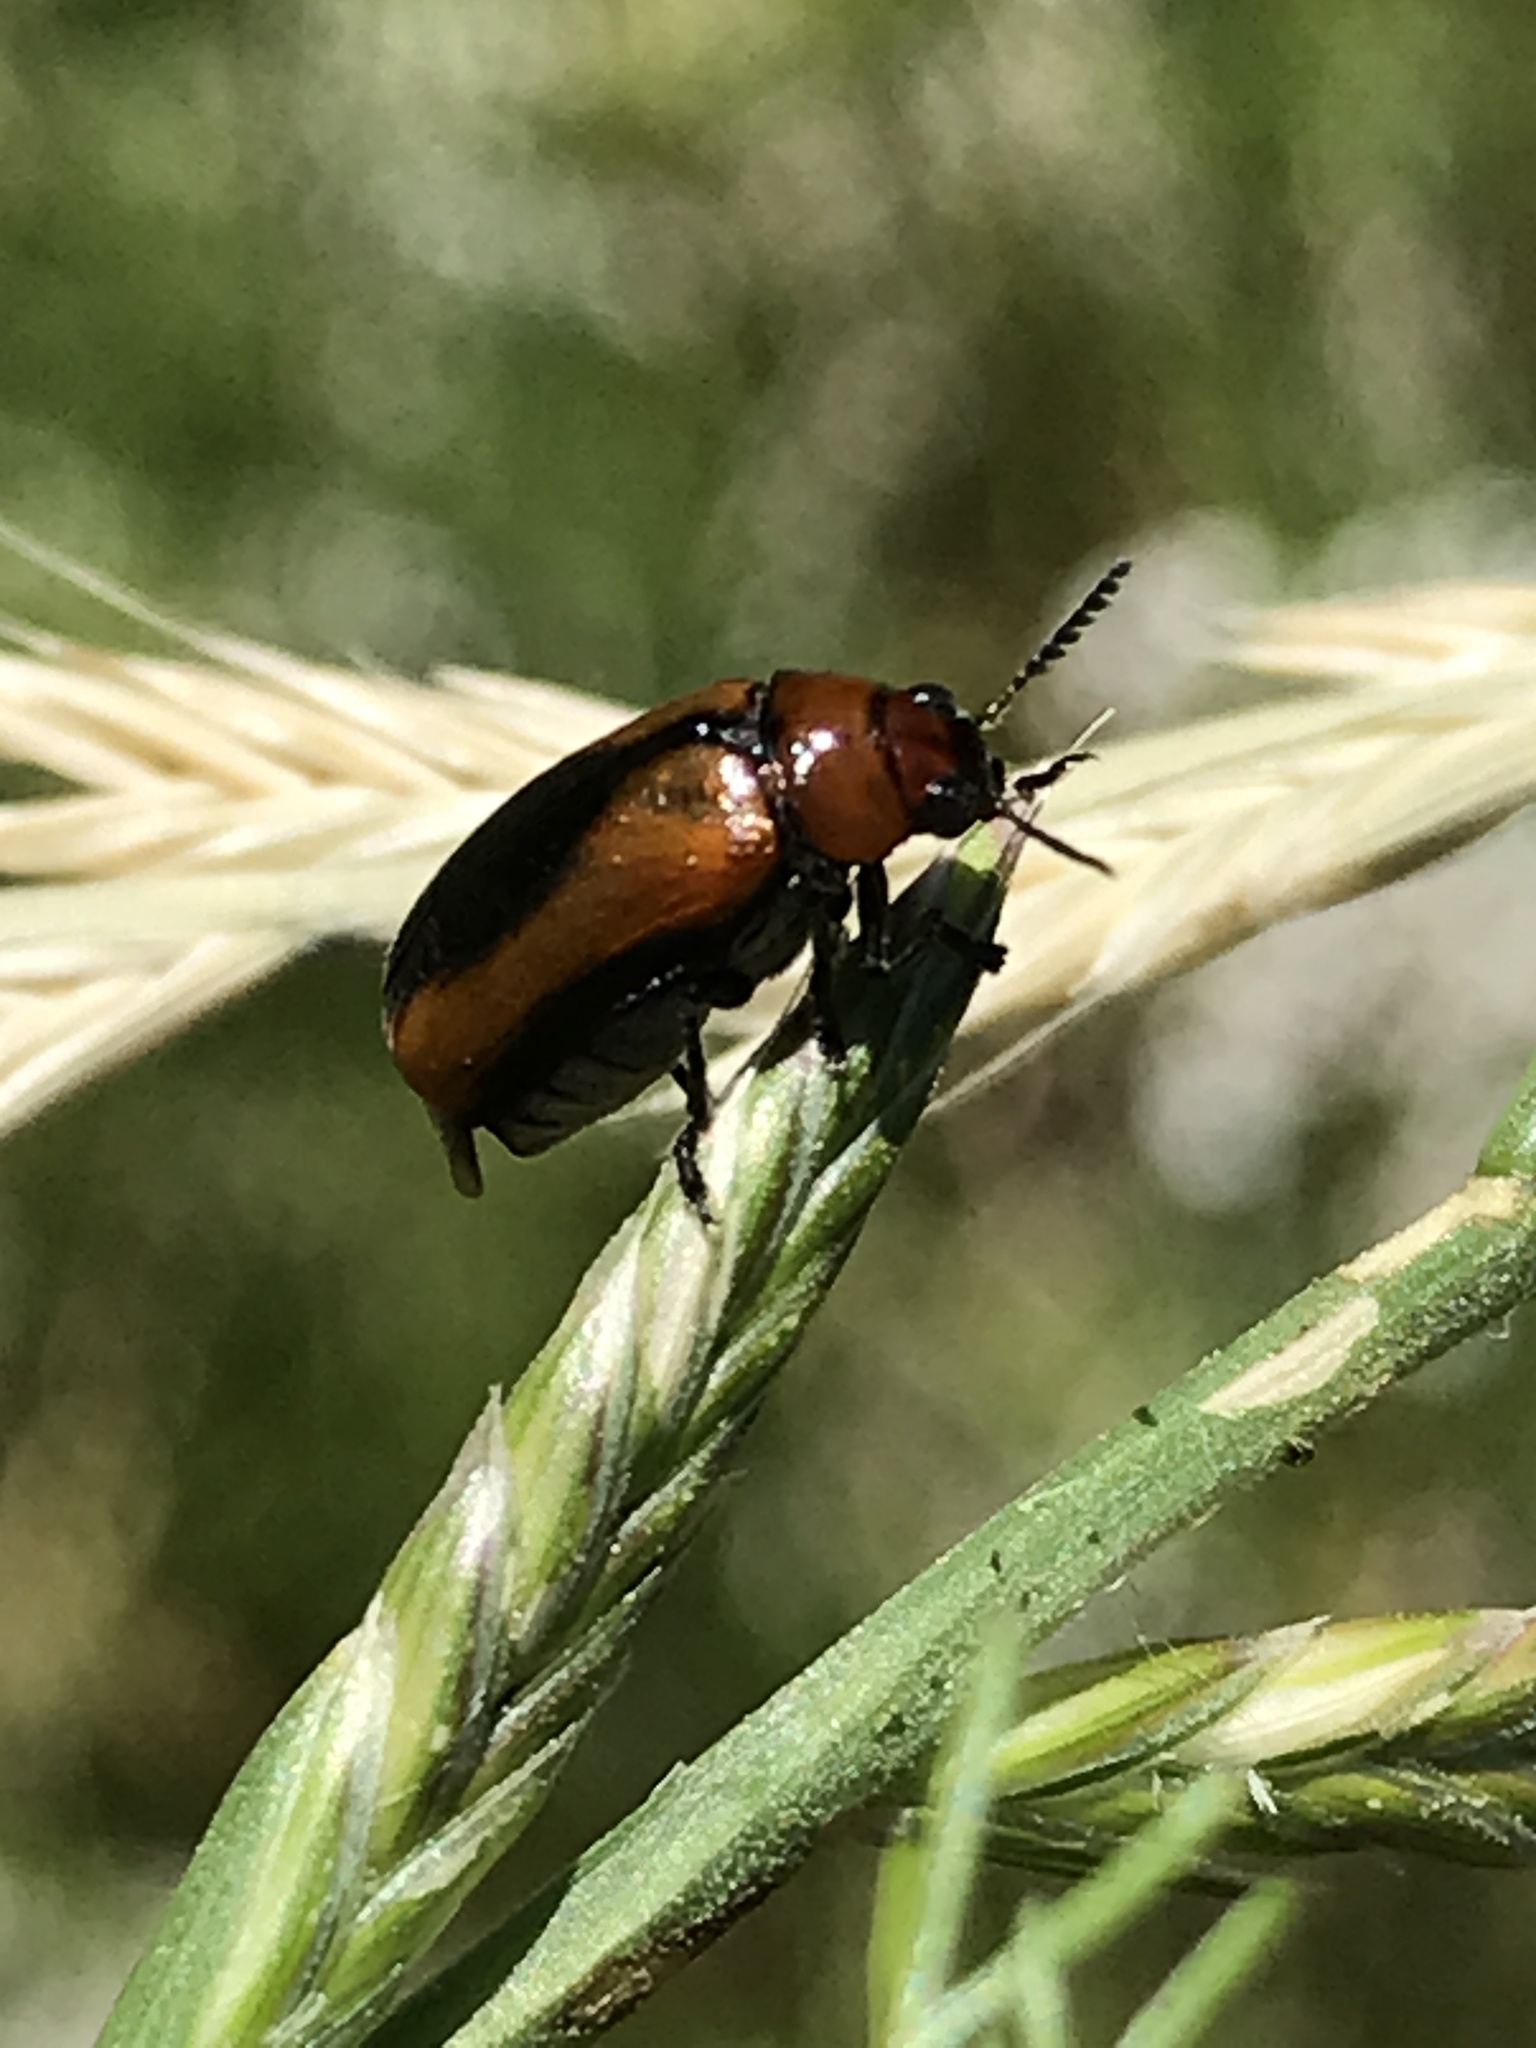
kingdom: Animalia
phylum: Arthropoda
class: Insecta
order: Coleoptera
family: Chrysomelidae
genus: Anomoea
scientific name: Anomoea laticlavia
